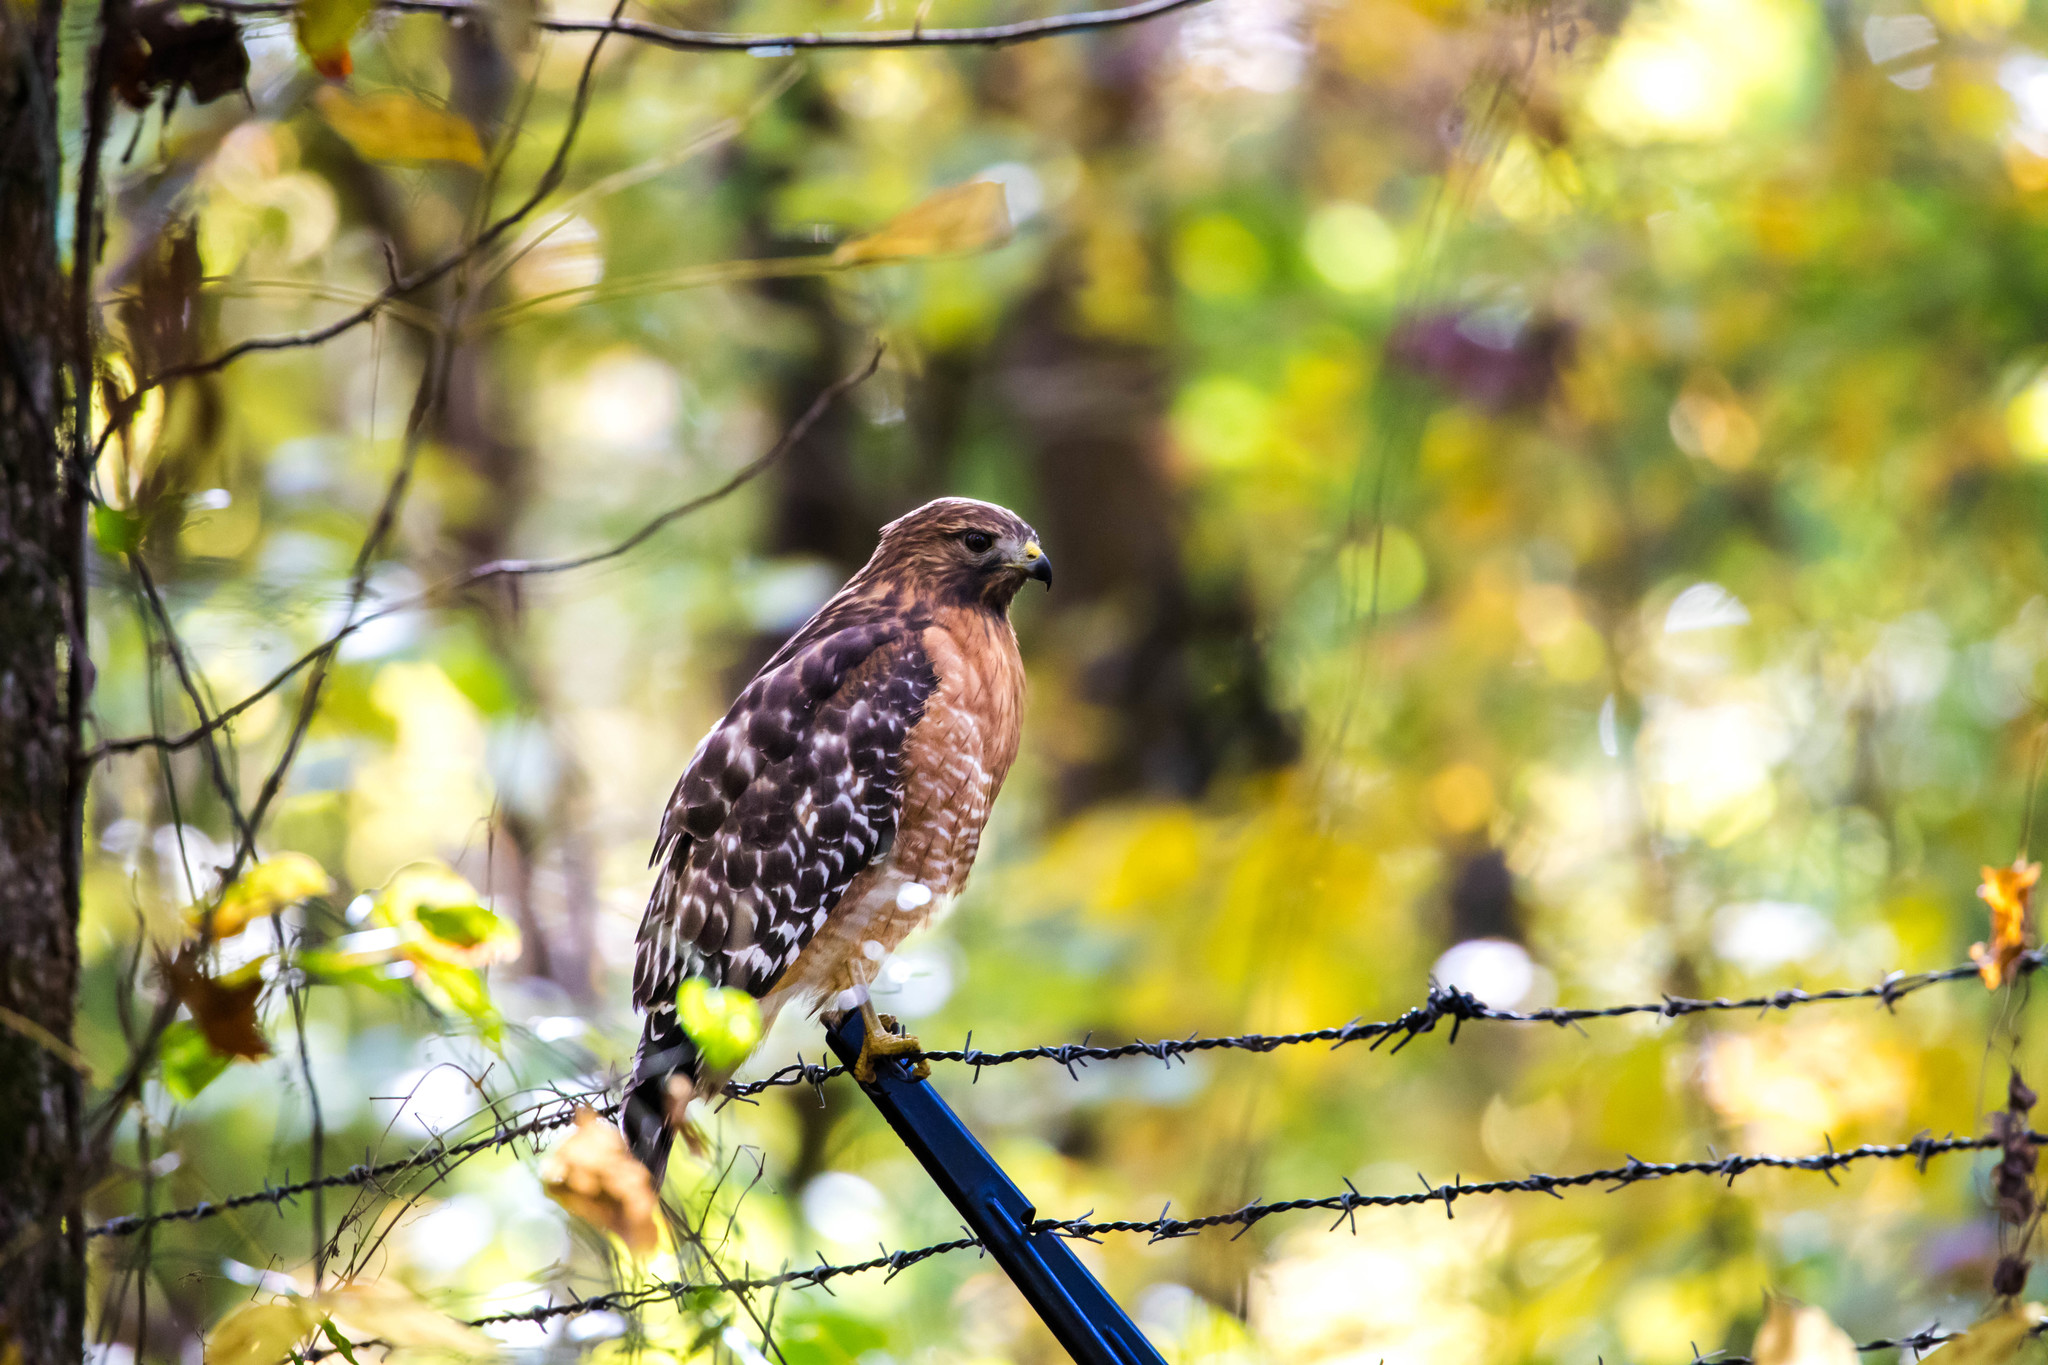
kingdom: Animalia
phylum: Chordata
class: Aves
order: Accipitriformes
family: Accipitridae
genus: Buteo
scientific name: Buteo lineatus
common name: Red-shouldered hawk
